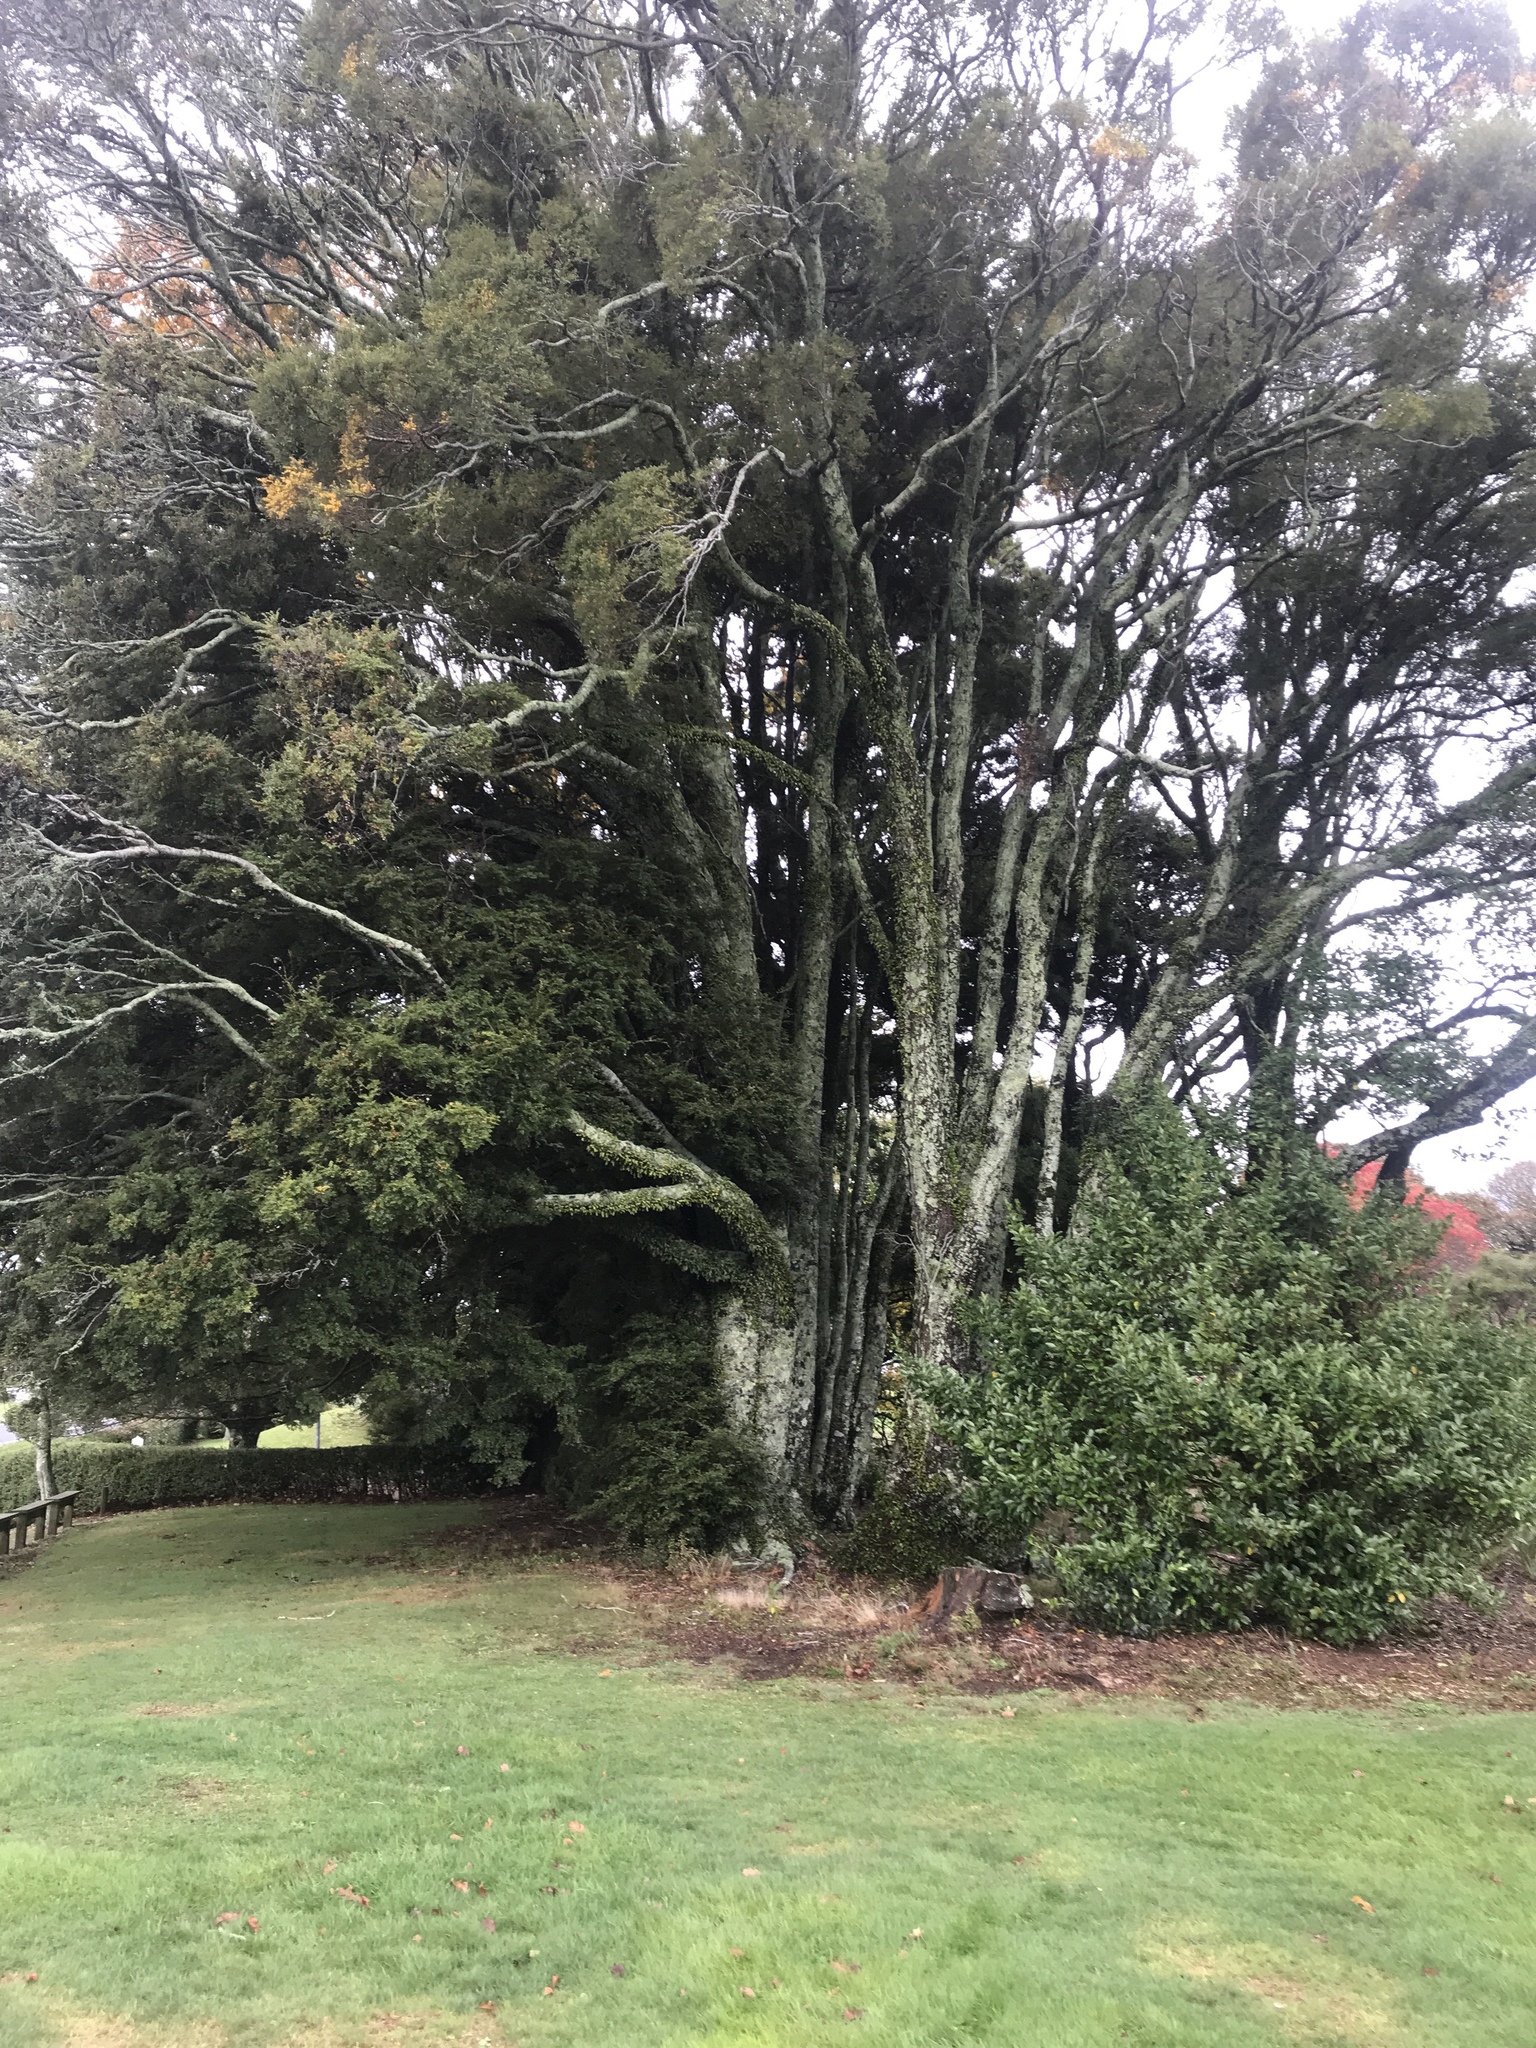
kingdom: Plantae
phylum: Tracheophyta
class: Magnoliopsida
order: Fagales
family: Nothofagaceae
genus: Nothofagus
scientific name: Nothofagus menziesii
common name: Silver beech
